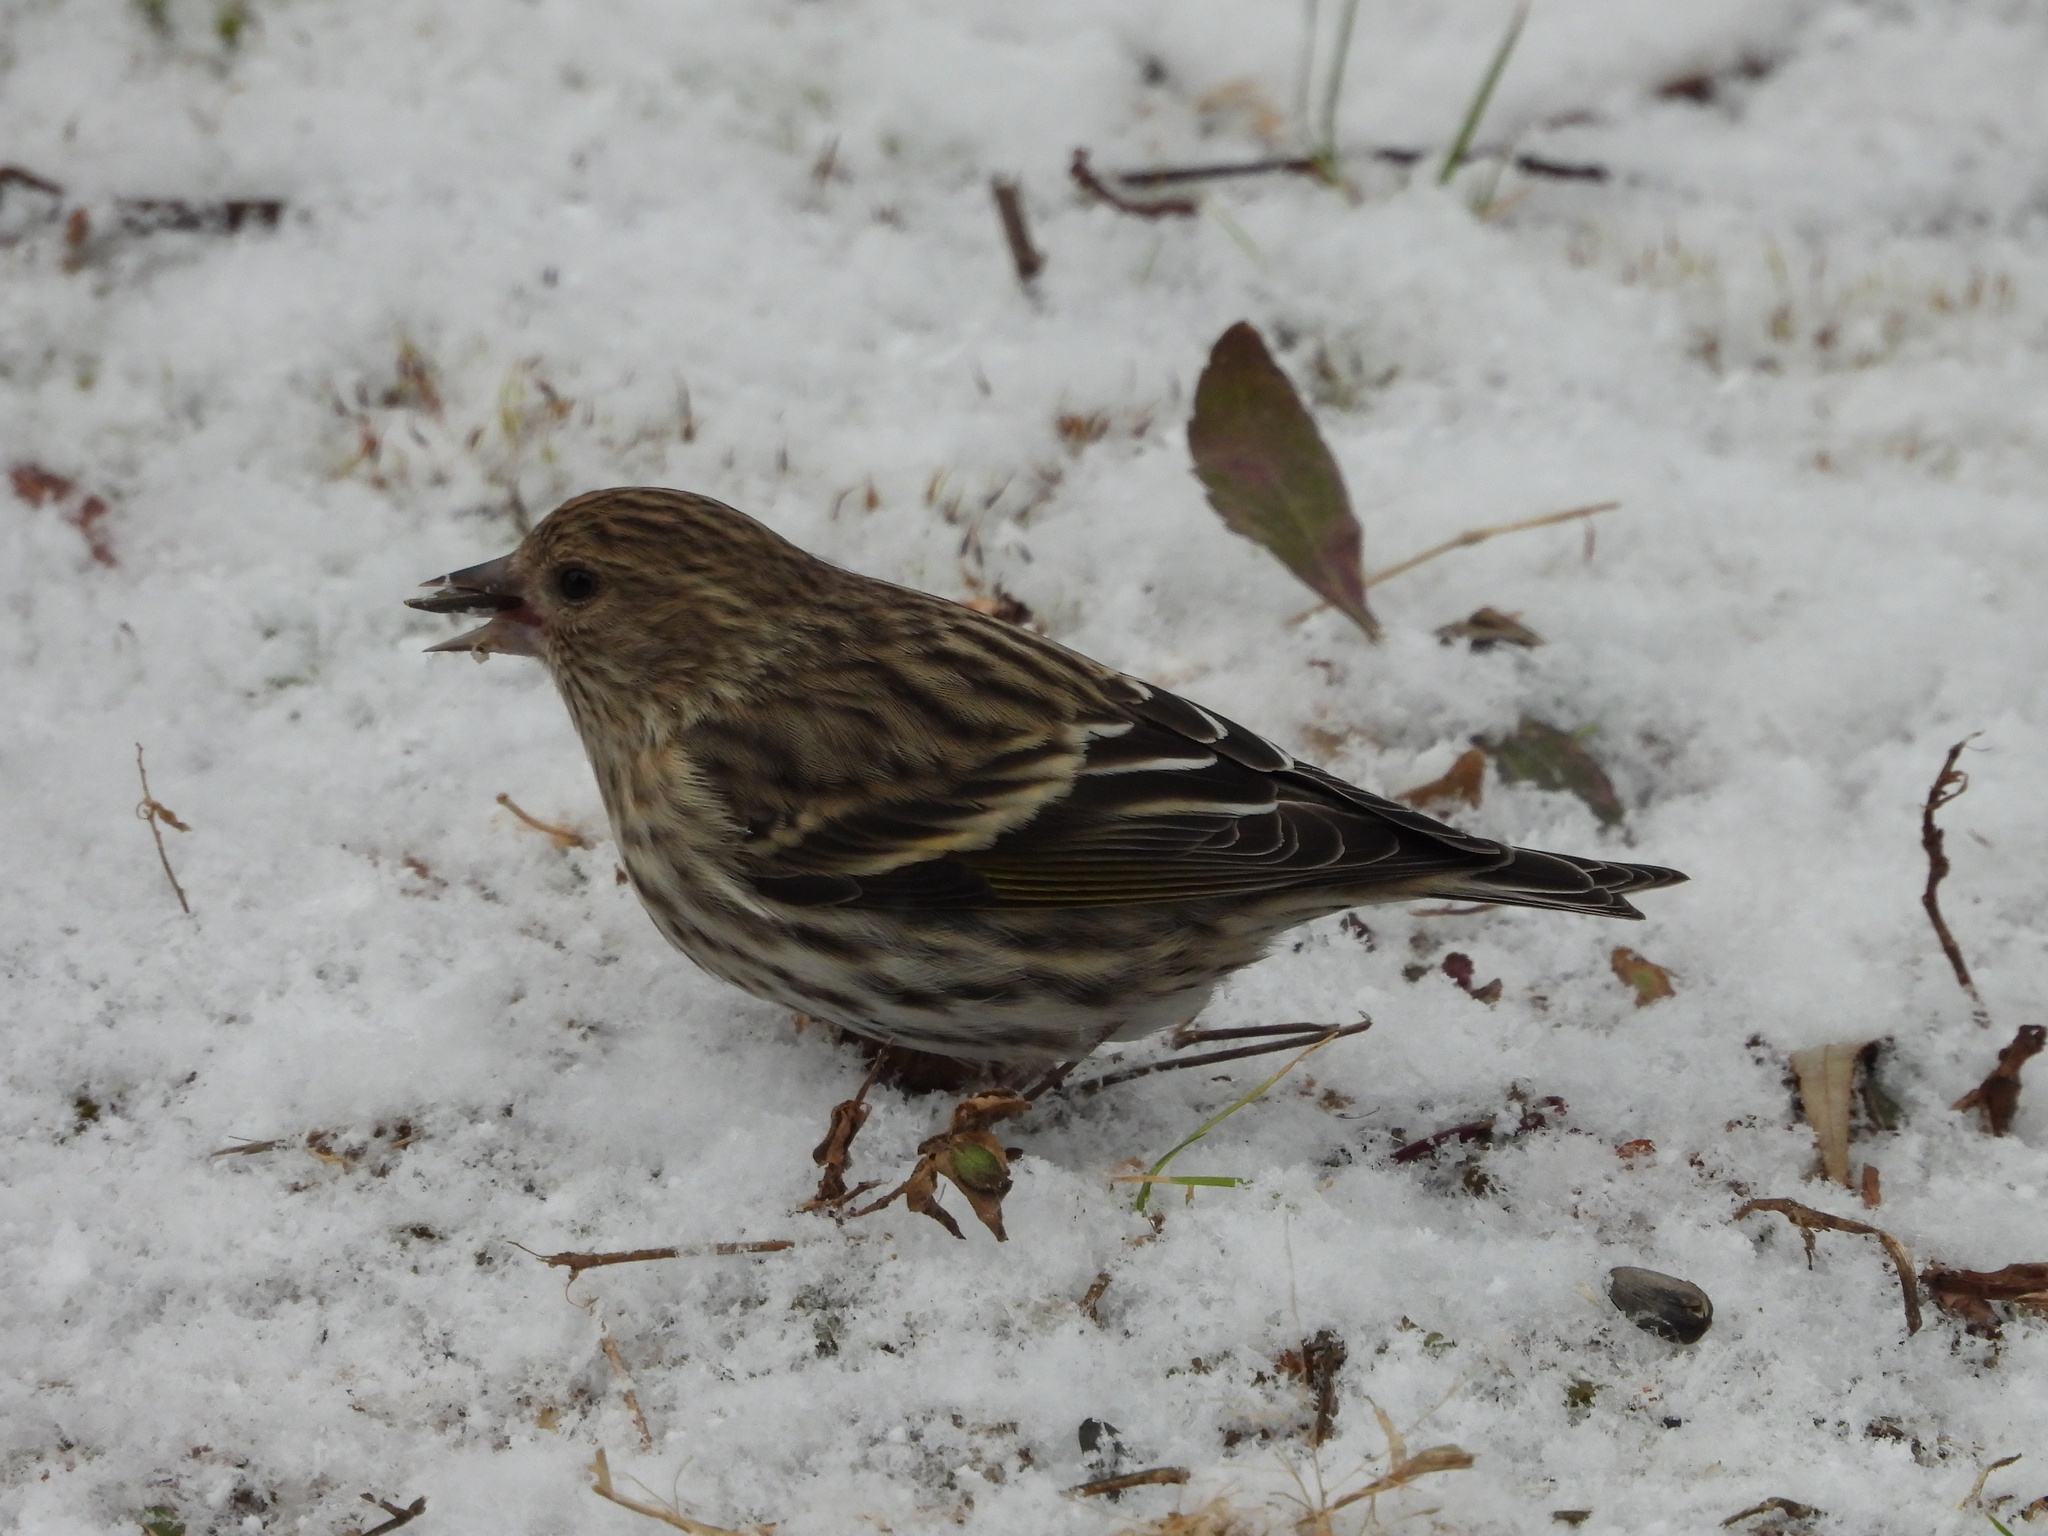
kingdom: Animalia
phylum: Chordata
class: Aves
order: Passeriformes
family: Fringillidae
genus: Spinus
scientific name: Spinus pinus
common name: Pine siskin
